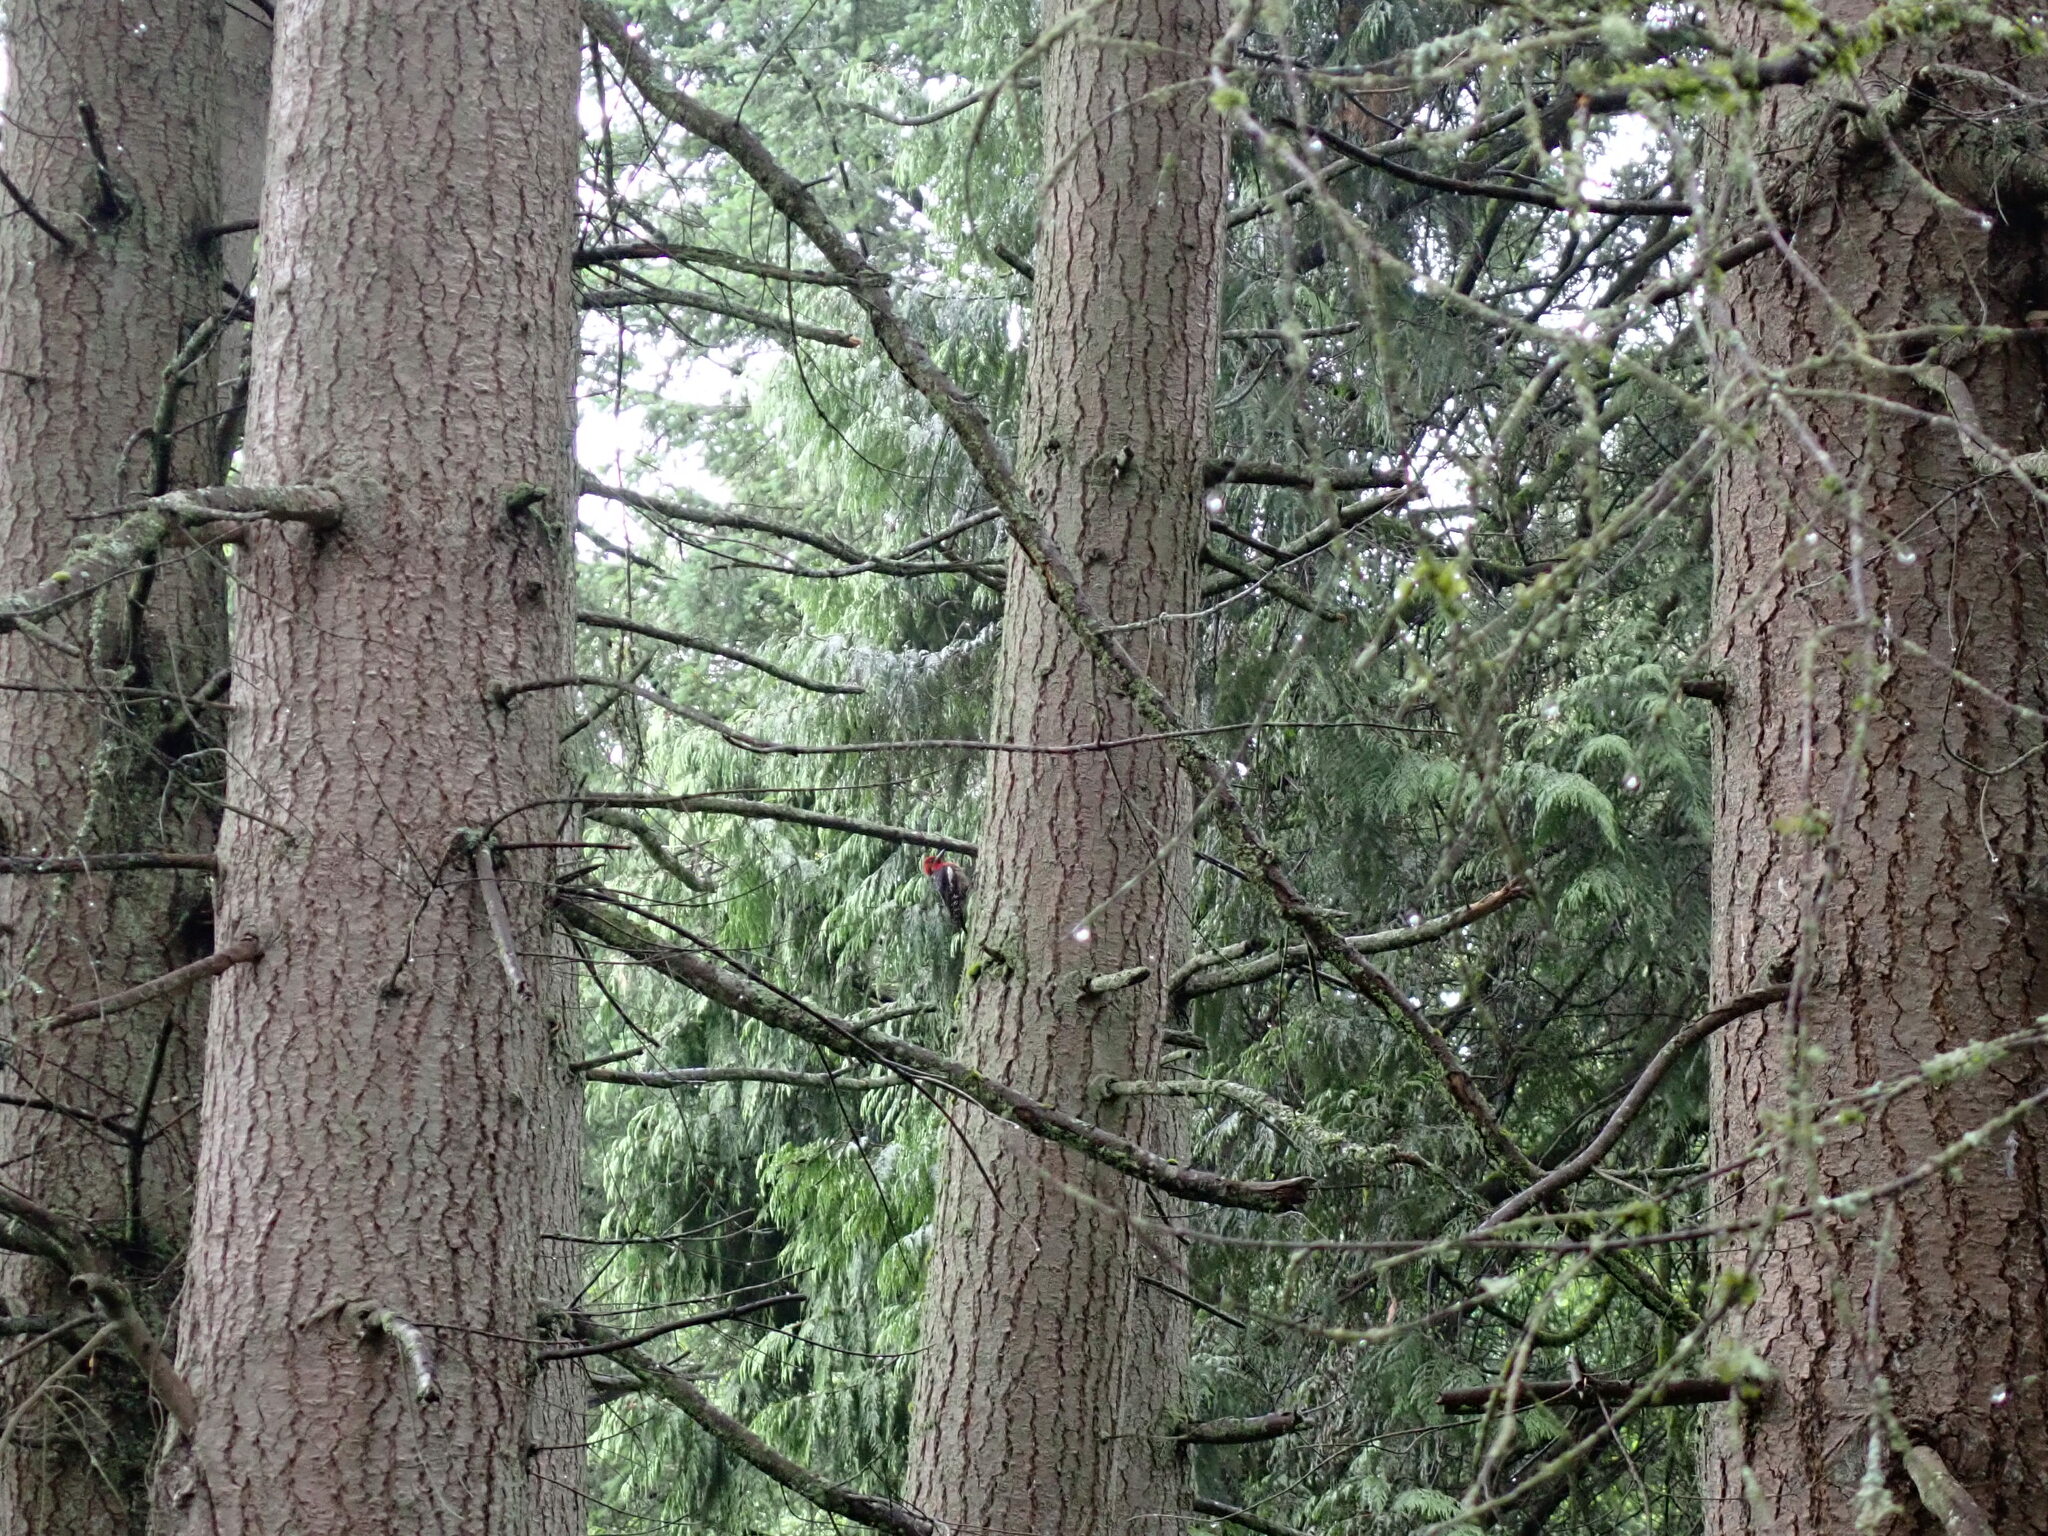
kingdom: Animalia
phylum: Chordata
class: Aves
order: Piciformes
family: Picidae
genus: Sphyrapicus
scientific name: Sphyrapicus ruber
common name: Red-breasted sapsucker
